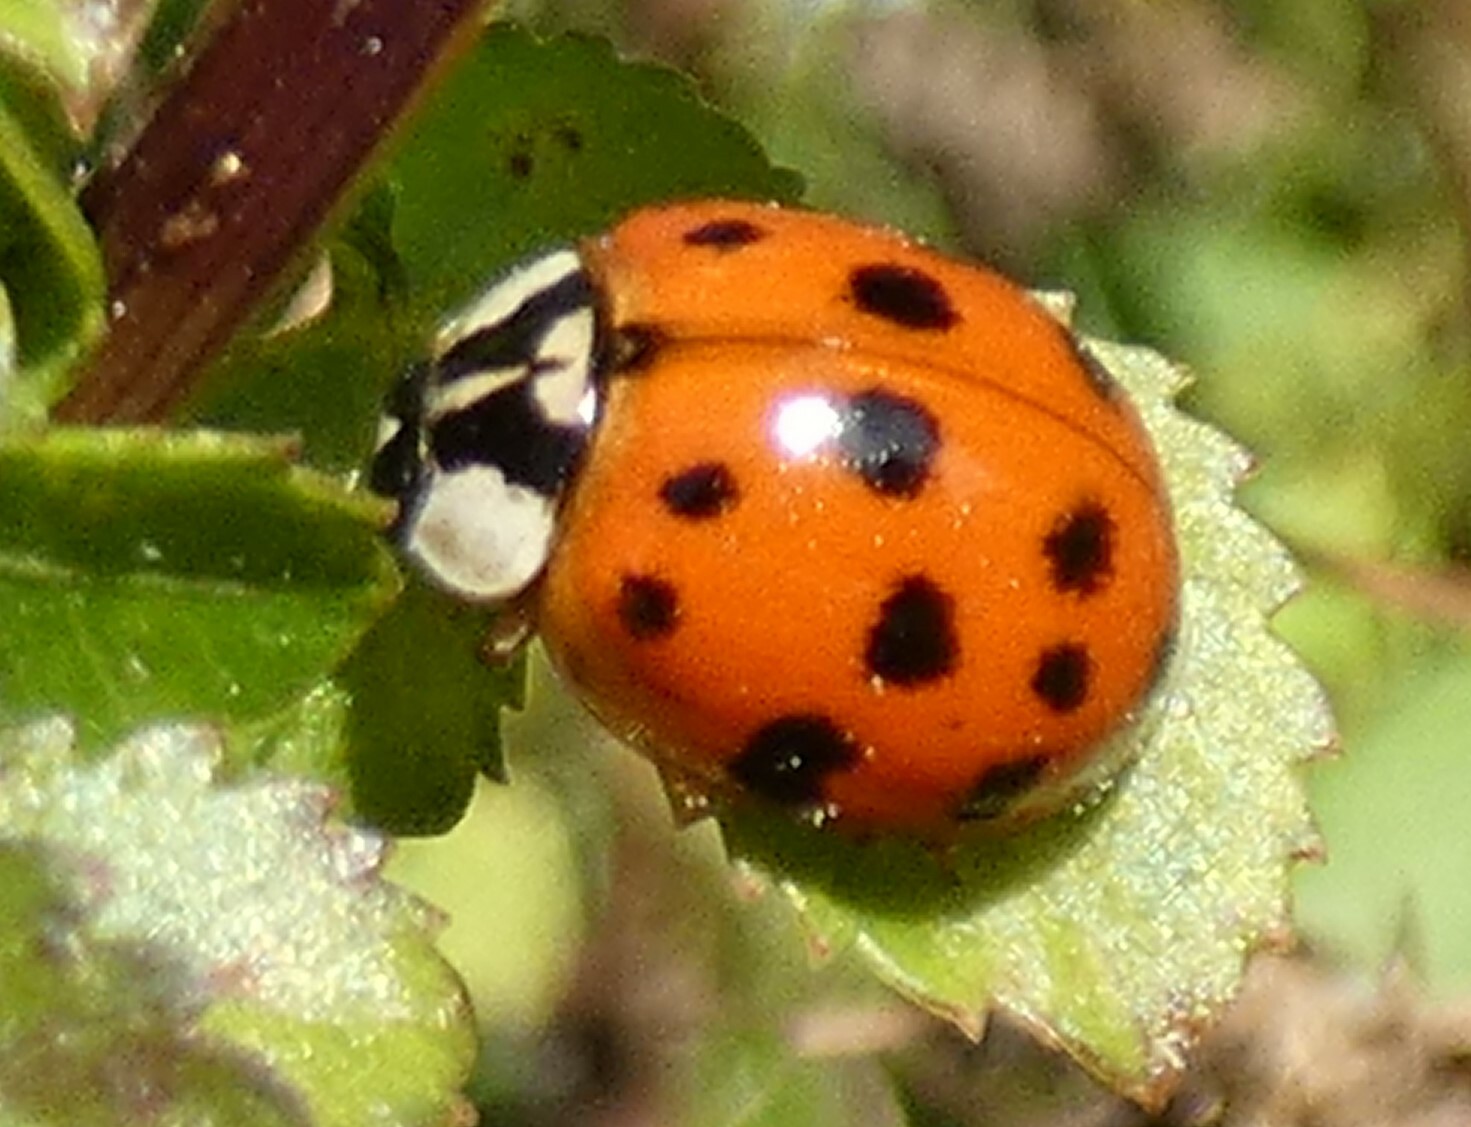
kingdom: Animalia
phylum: Arthropoda
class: Insecta
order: Coleoptera
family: Coccinellidae
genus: Harmonia
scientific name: Harmonia axyridis
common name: Harlequin ladybird
